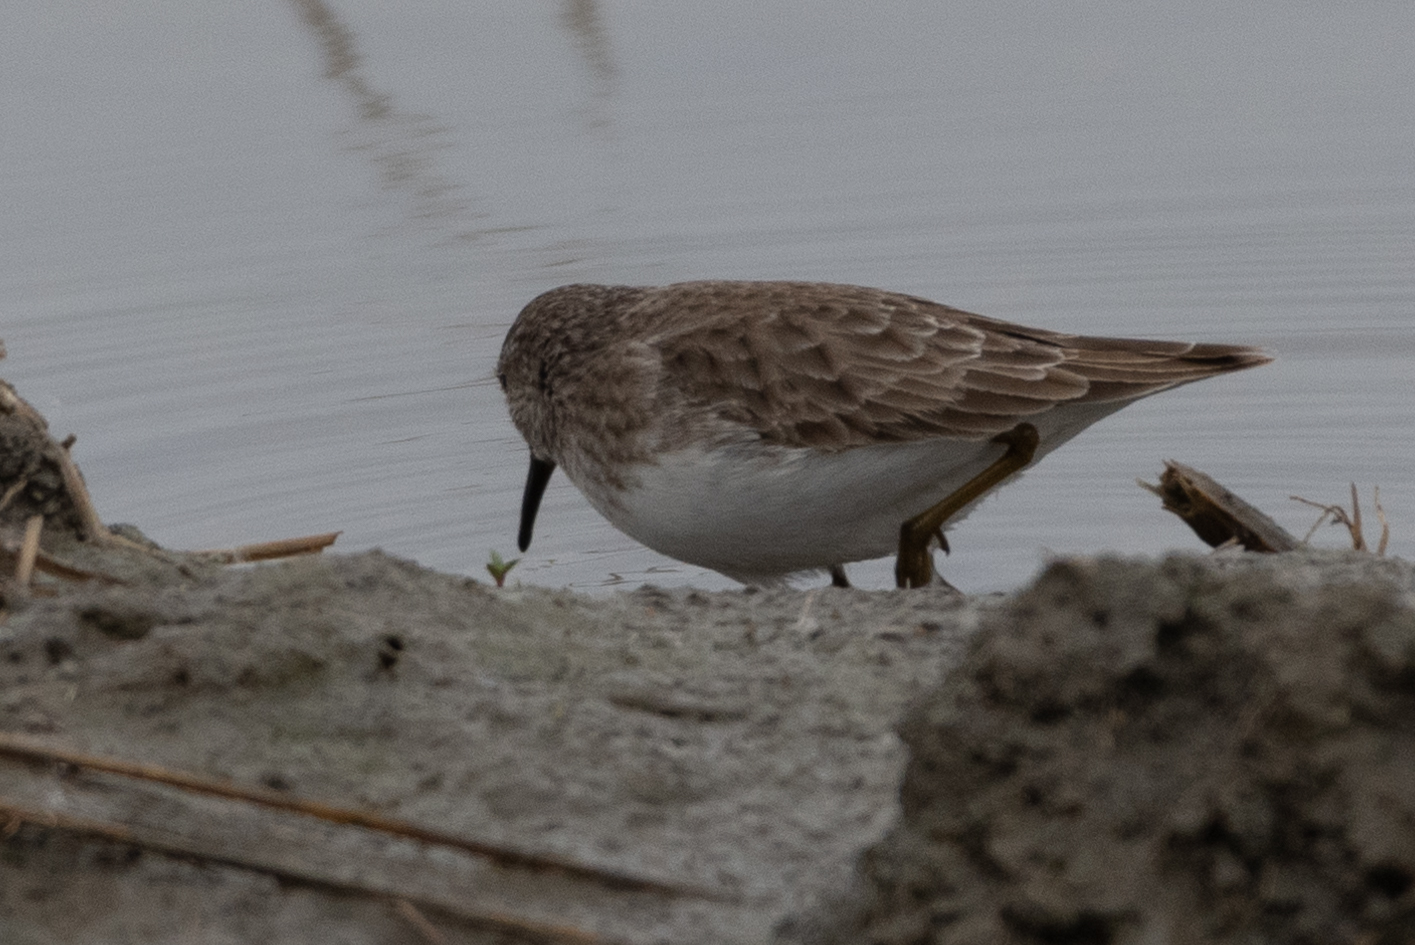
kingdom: Animalia
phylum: Chordata
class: Aves
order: Charadriiformes
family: Scolopacidae
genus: Calidris
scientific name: Calidris minutilla
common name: Least sandpiper
